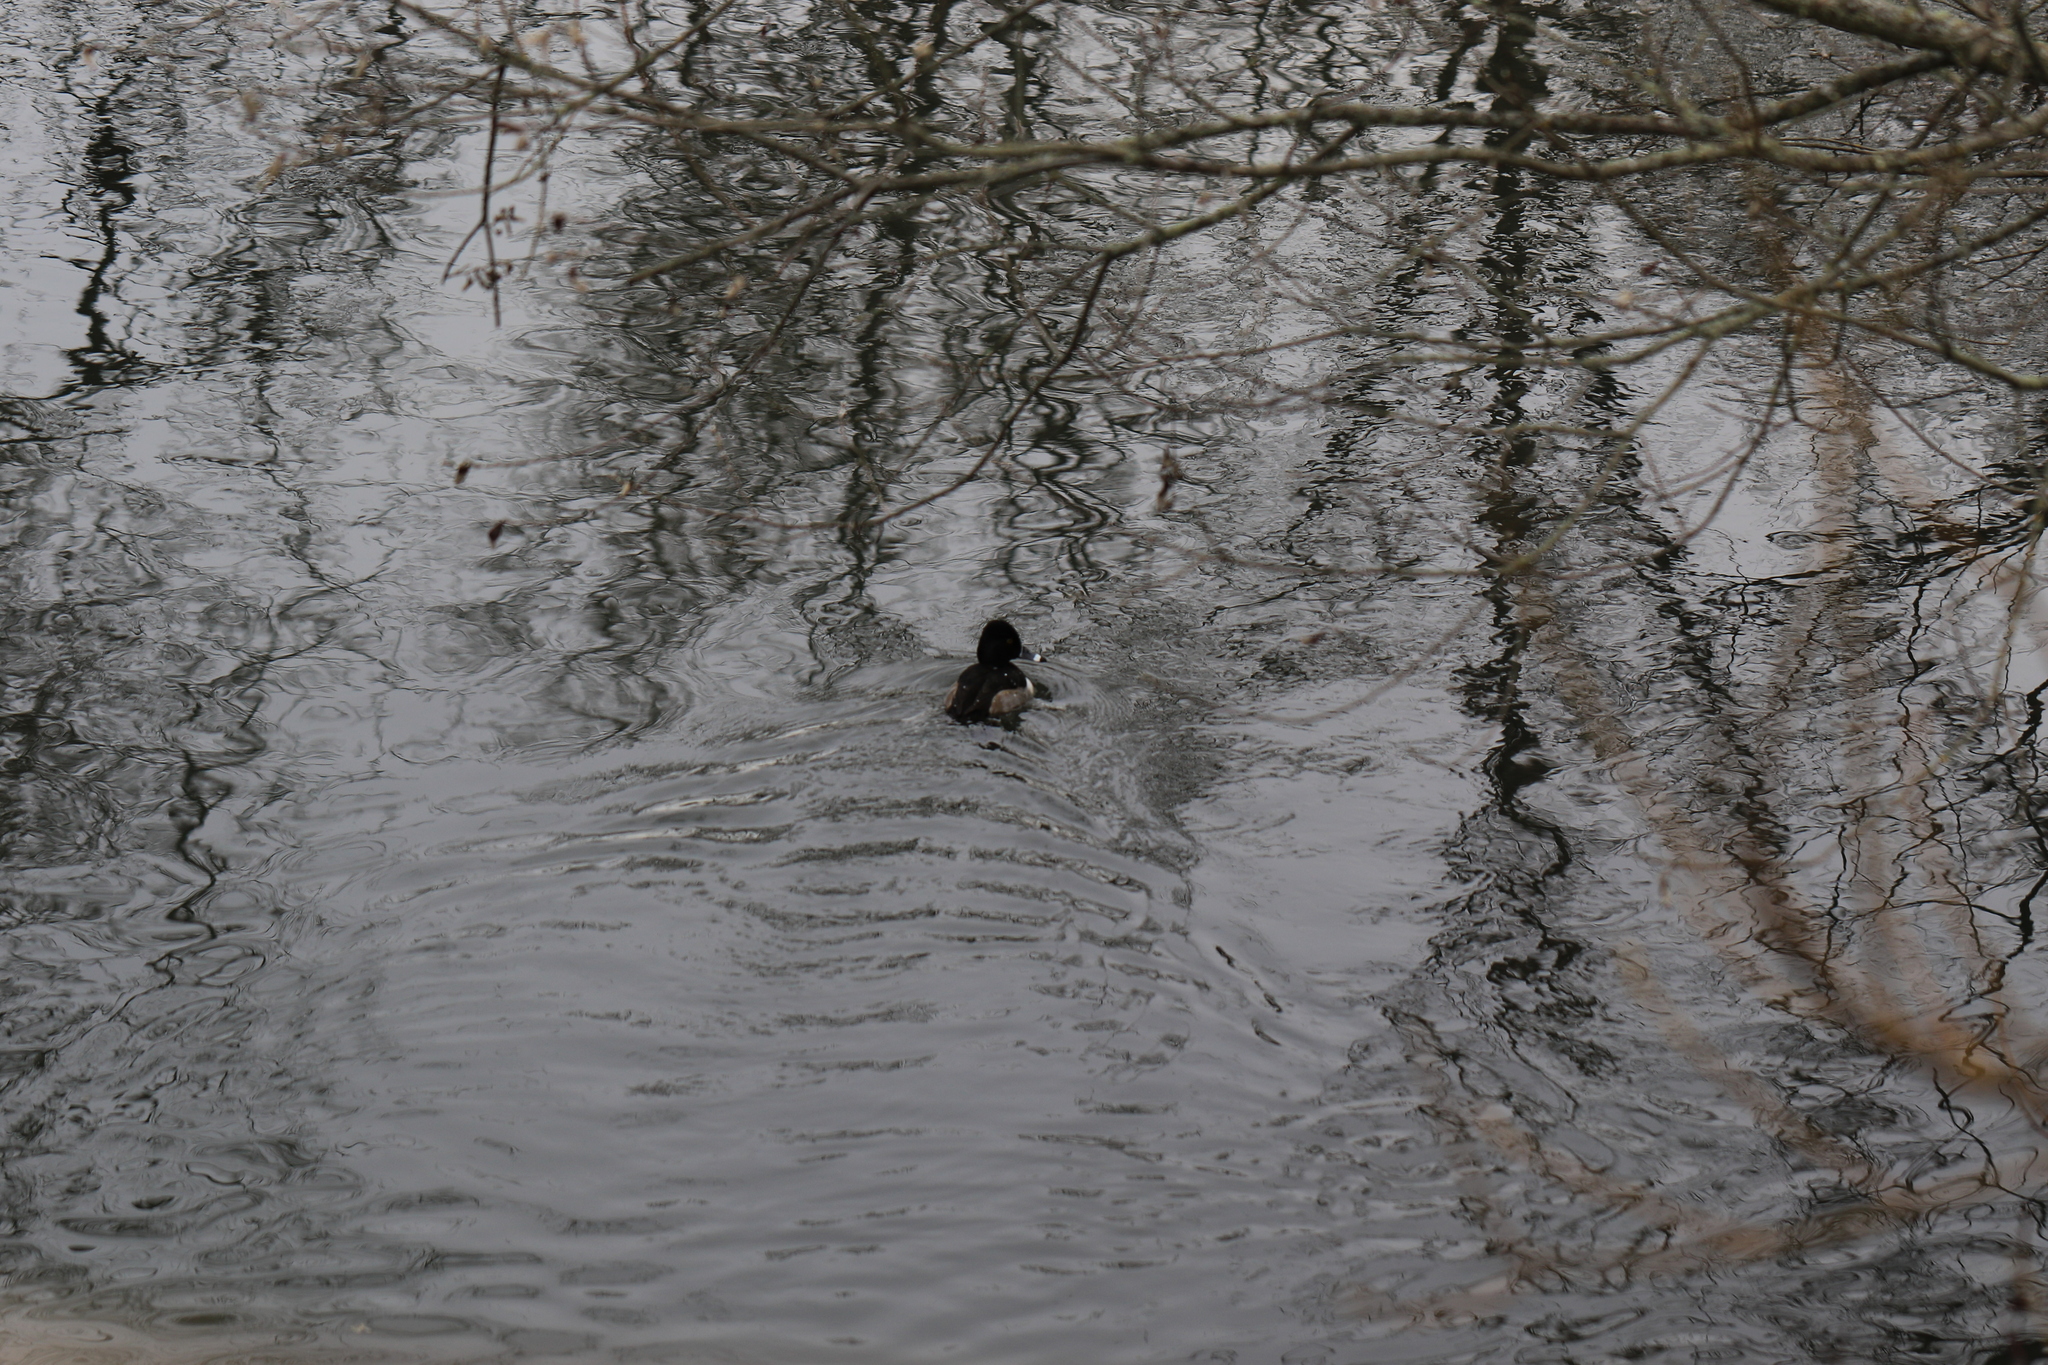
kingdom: Animalia
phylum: Chordata
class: Aves
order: Anseriformes
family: Anatidae
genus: Aythya
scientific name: Aythya collaris
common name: Ring-necked duck
